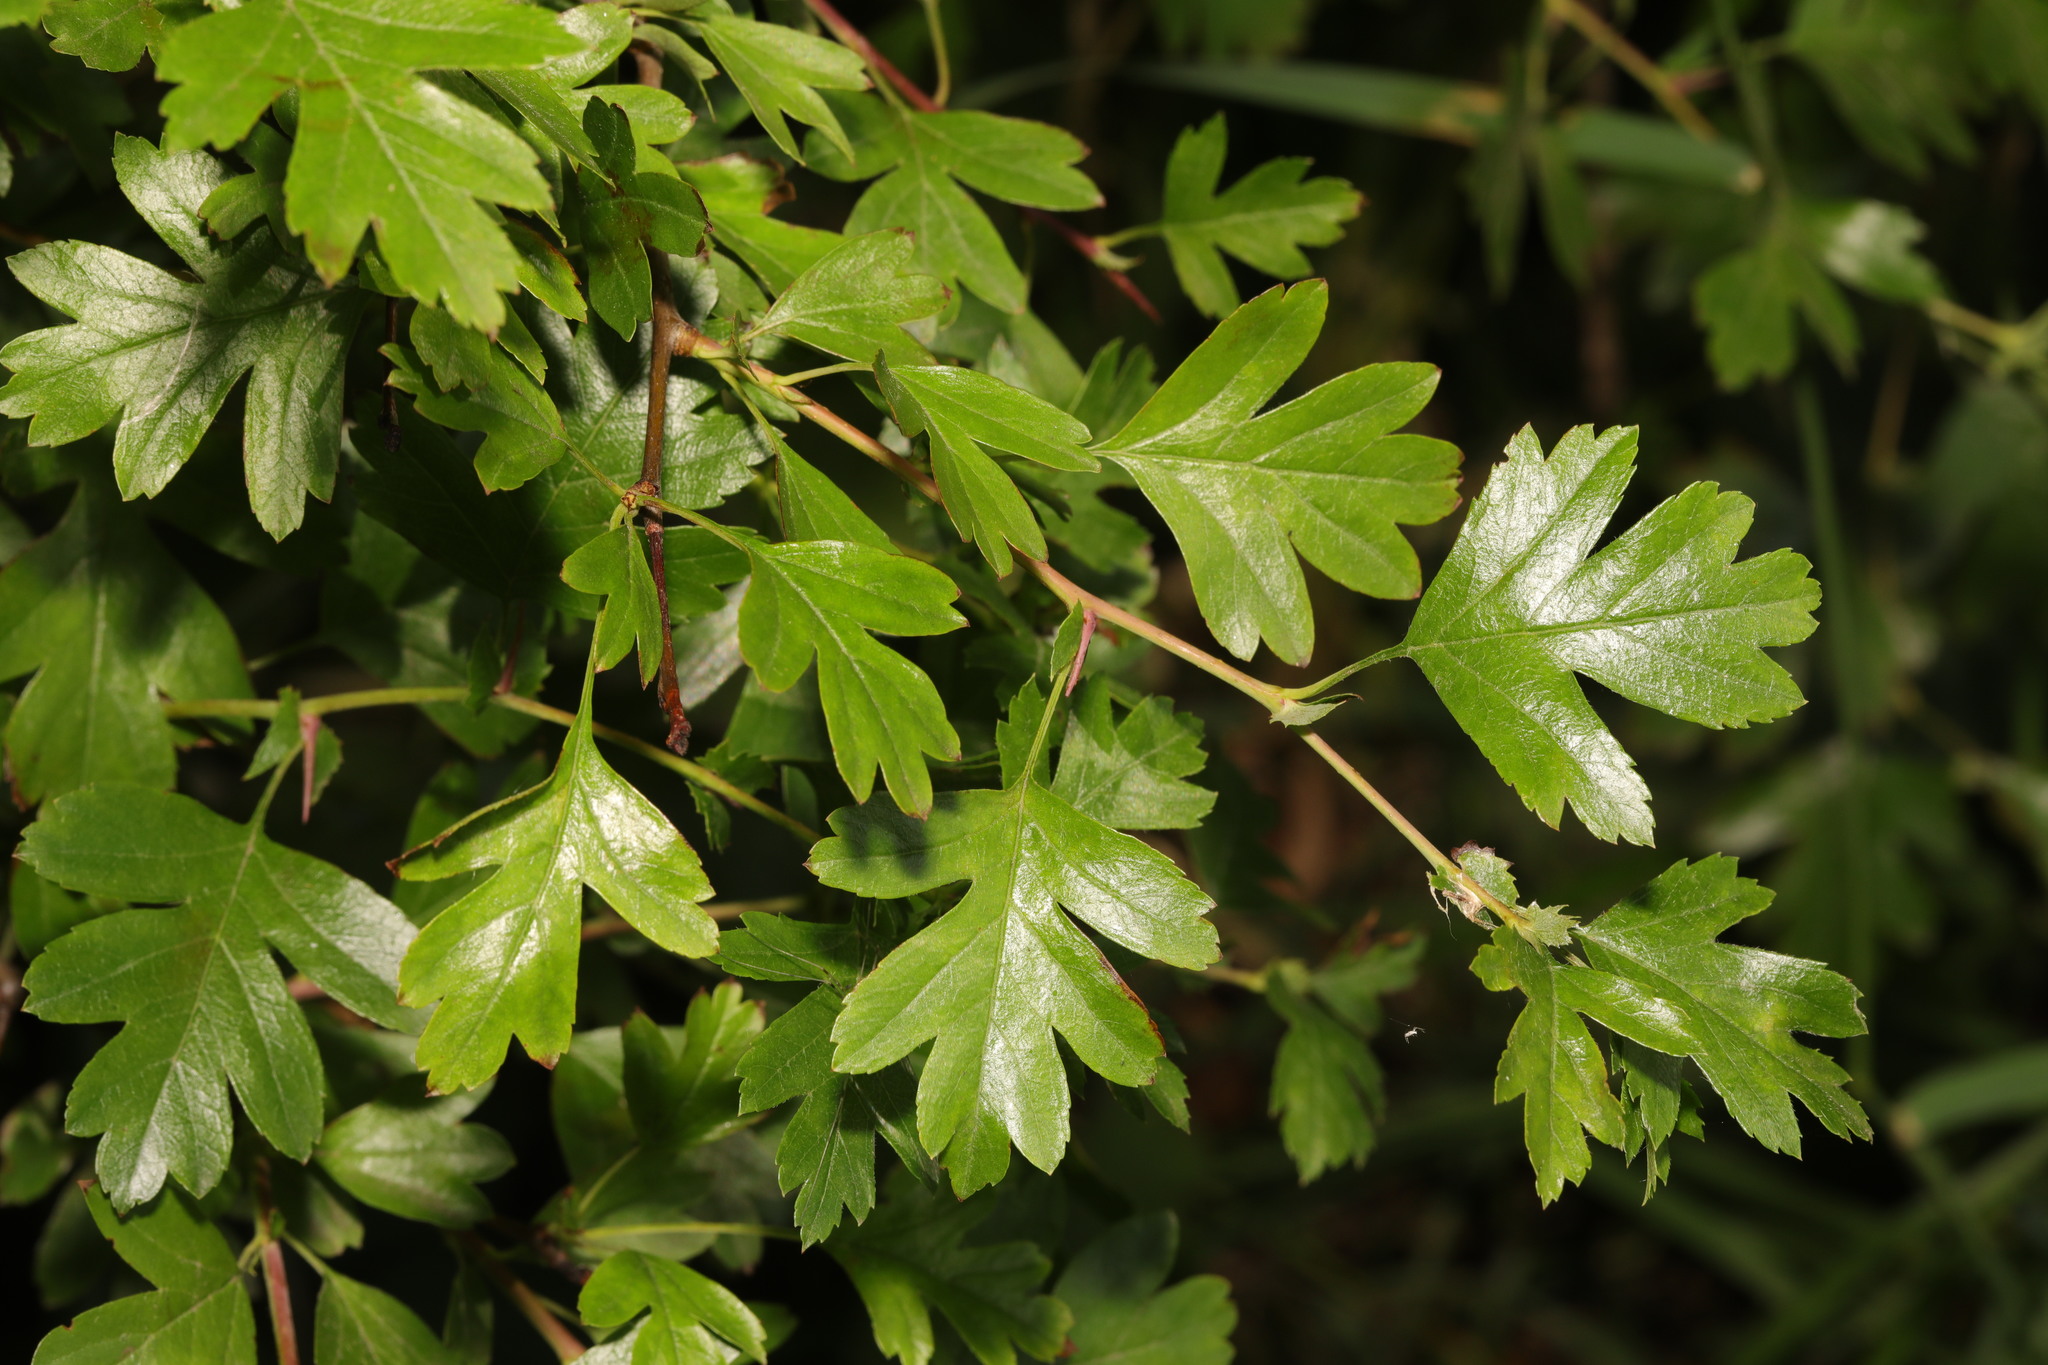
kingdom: Plantae
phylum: Tracheophyta
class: Magnoliopsida
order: Rosales
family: Rosaceae
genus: Crataegus
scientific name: Crataegus monogyna
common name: Hawthorn
